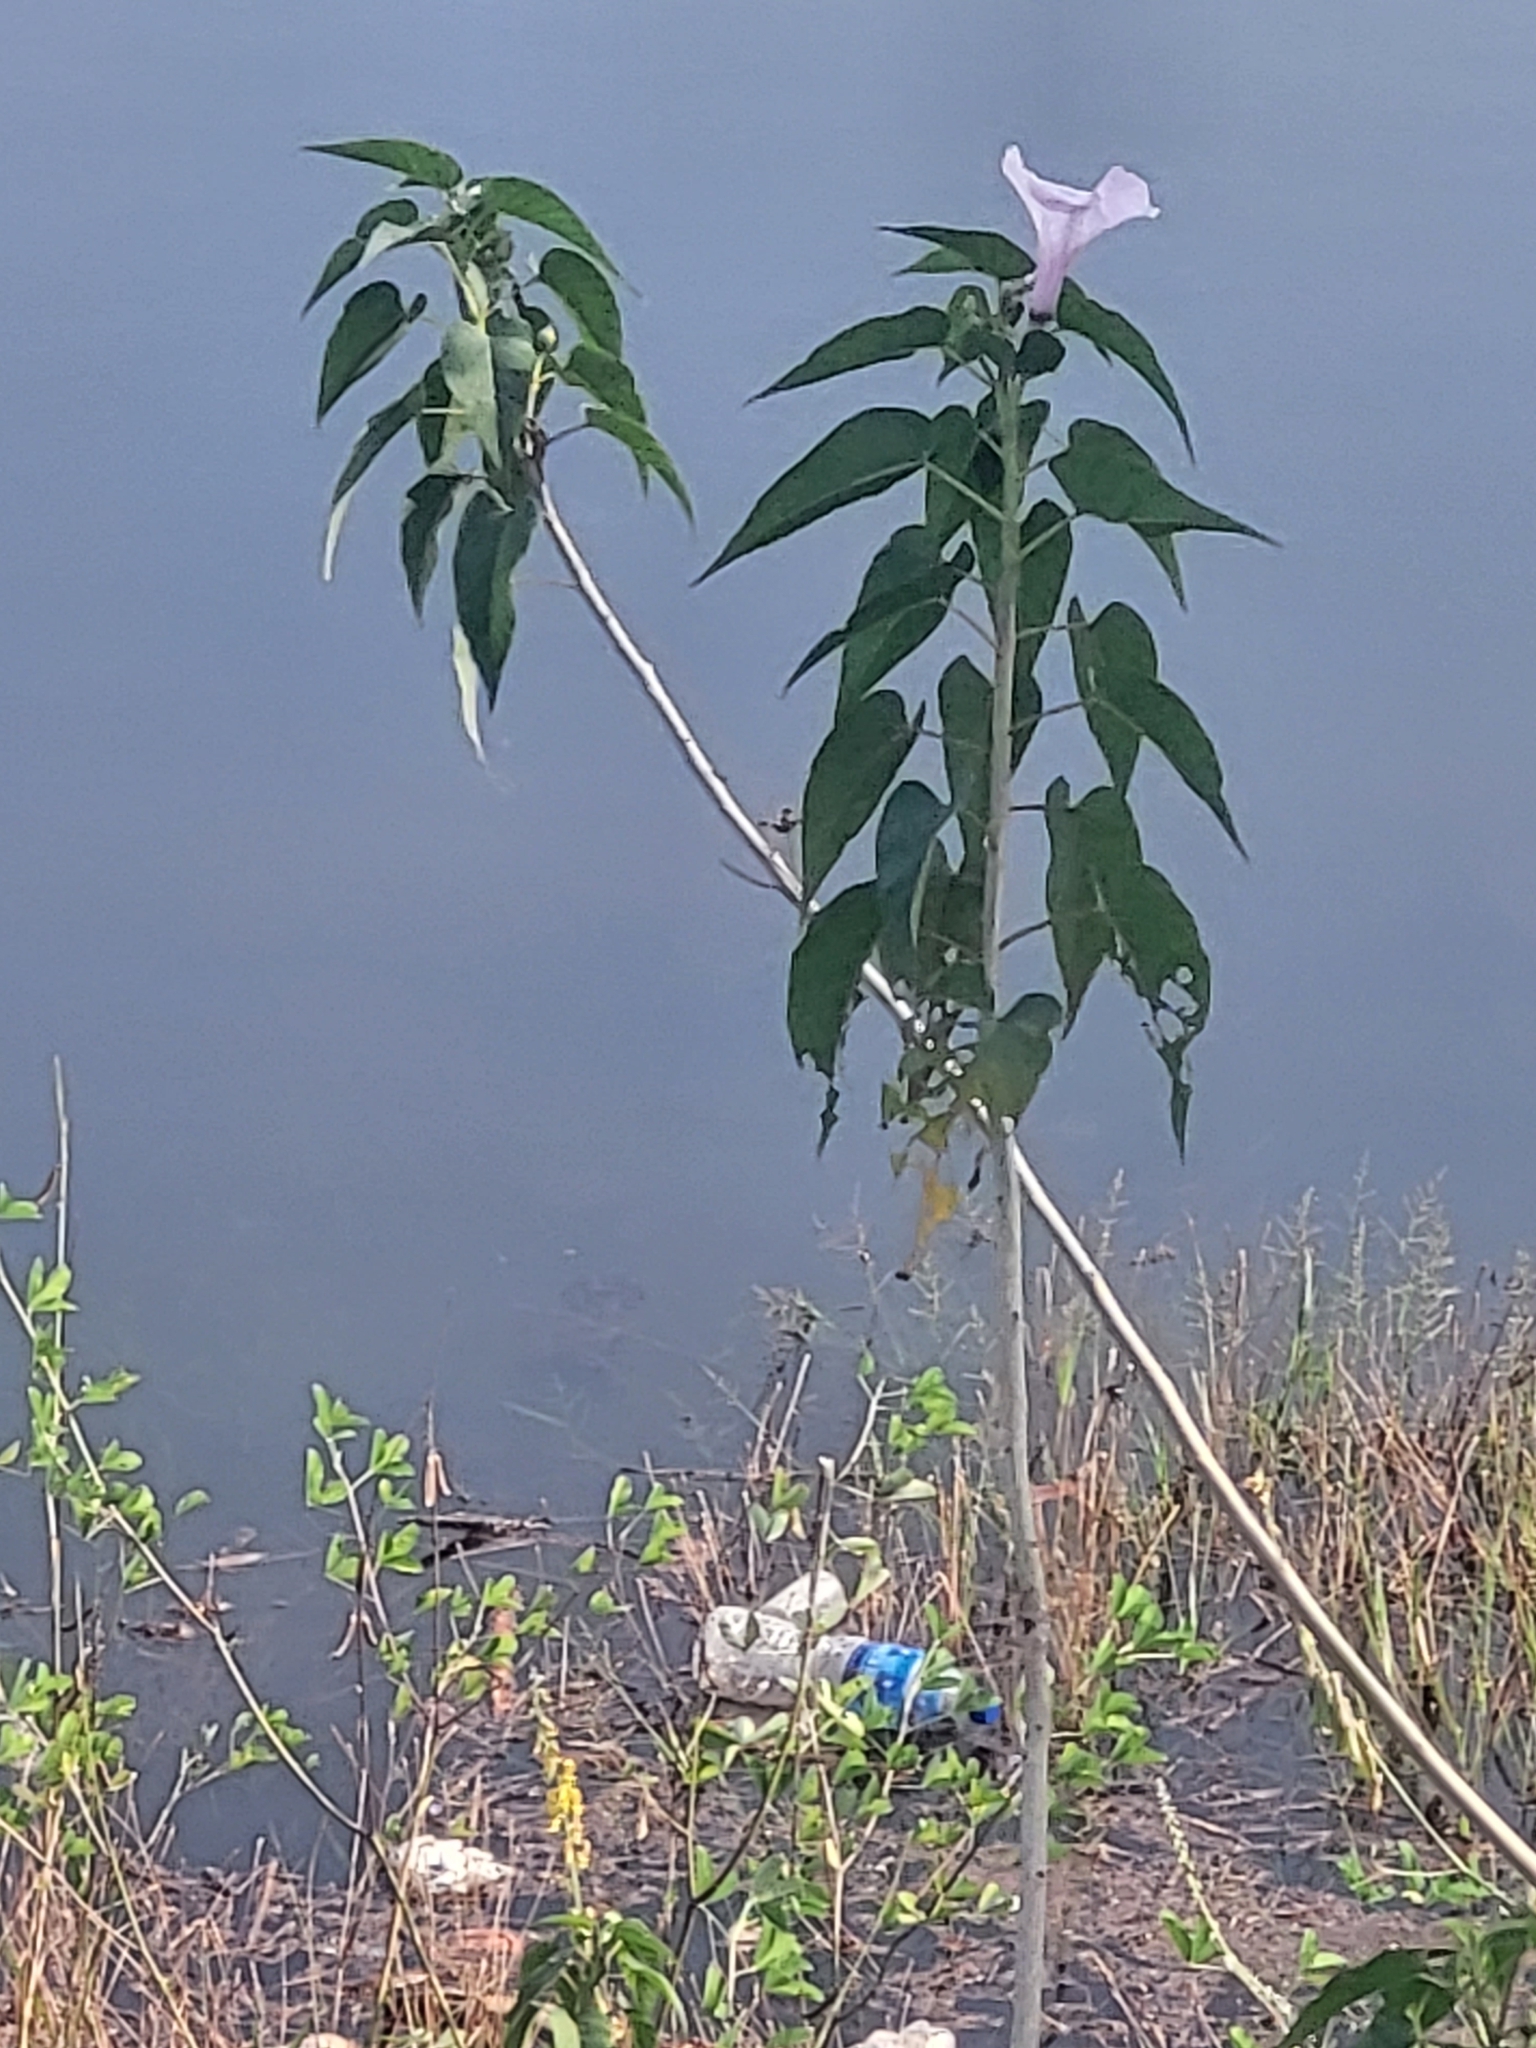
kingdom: Plantae
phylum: Tracheophyta
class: Magnoliopsida
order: Solanales
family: Convolvulaceae
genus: Ipomoea
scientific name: Ipomoea carnea
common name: Morning-glory
